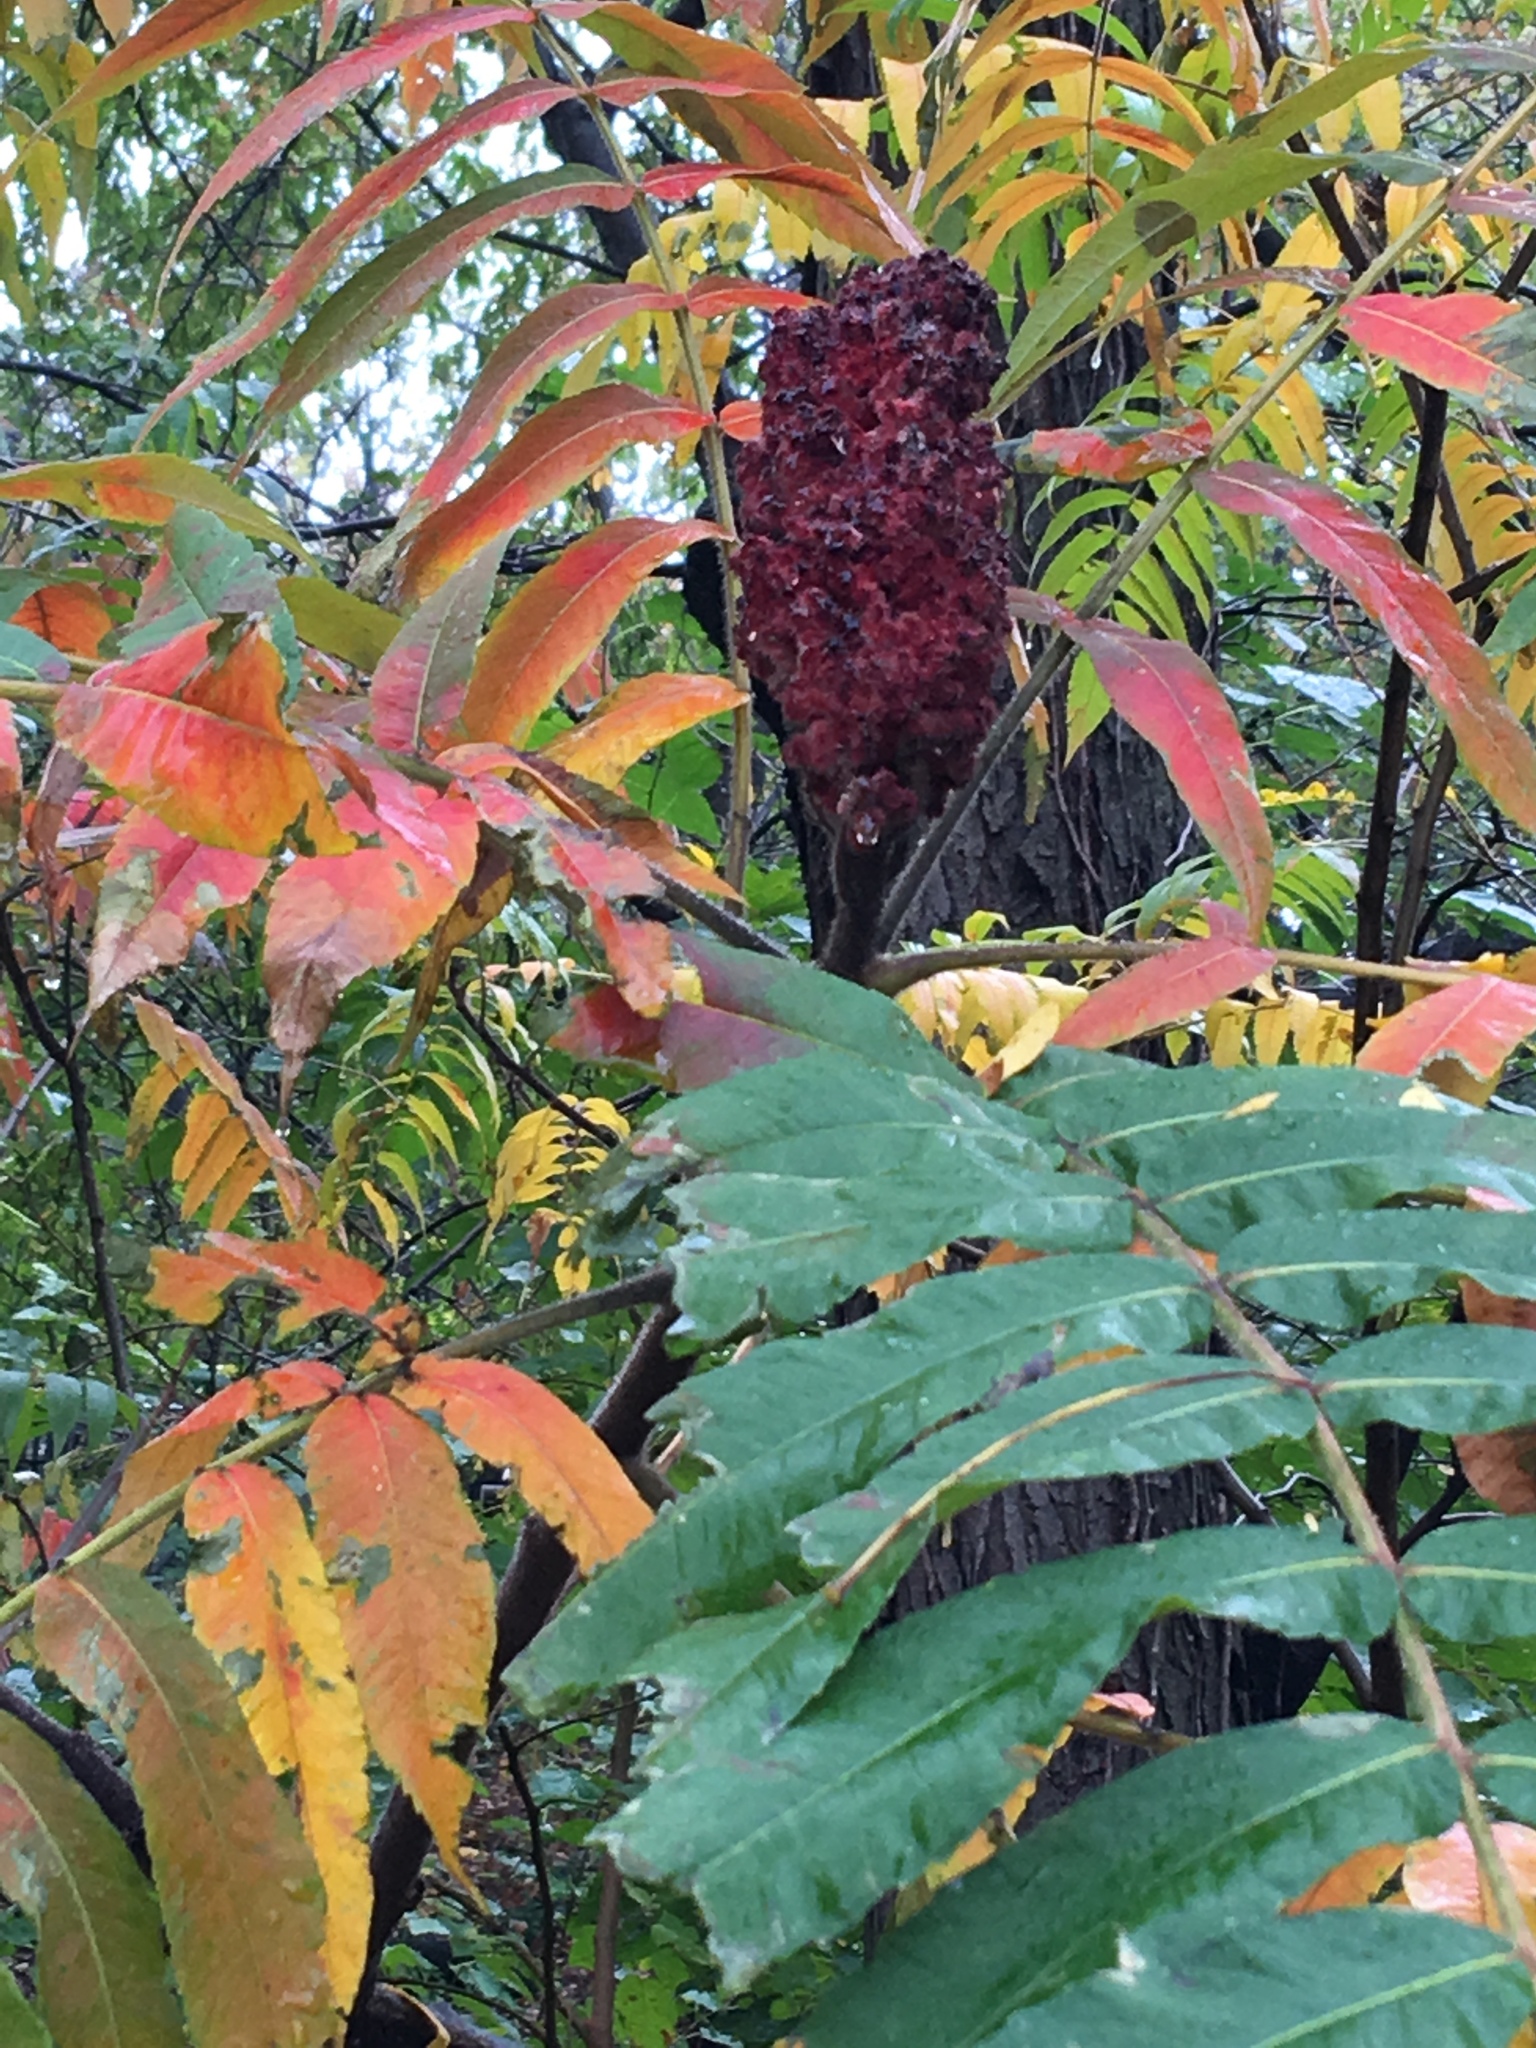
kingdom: Plantae
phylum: Tracheophyta
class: Magnoliopsida
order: Sapindales
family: Anacardiaceae
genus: Rhus
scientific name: Rhus typhina
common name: Staghorn sumac
